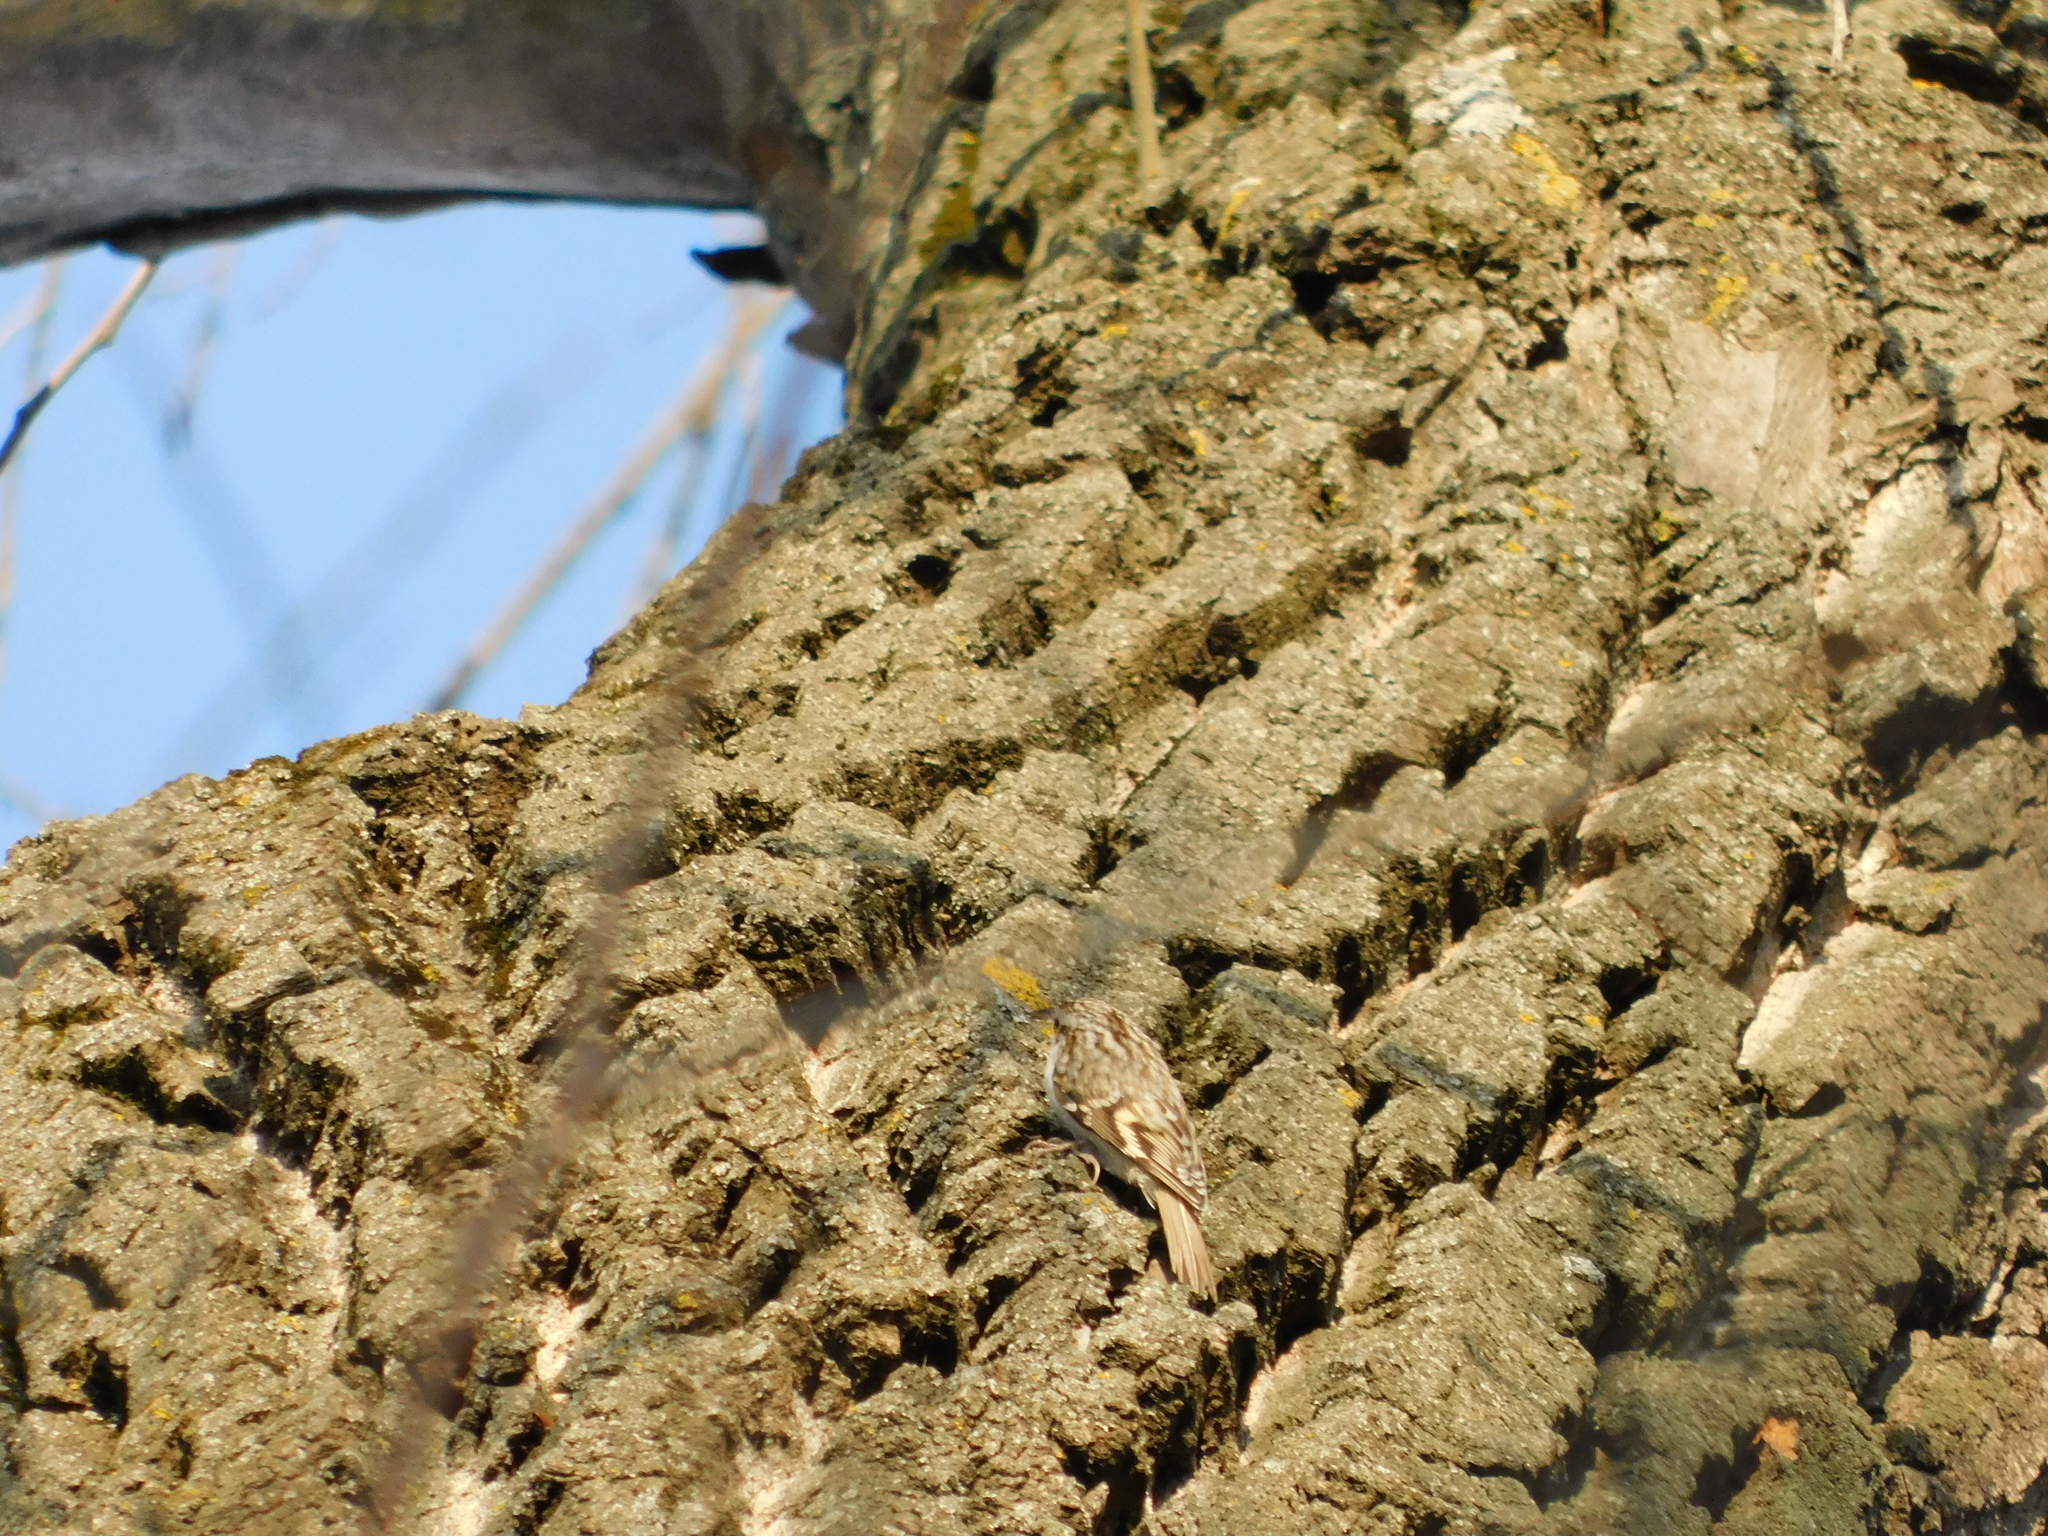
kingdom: Animalia
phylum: Chordata
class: Aves
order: Passeriformes
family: Certhiidae
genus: Certhia
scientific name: Certhia familiaris
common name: Eurasian treecreeper
